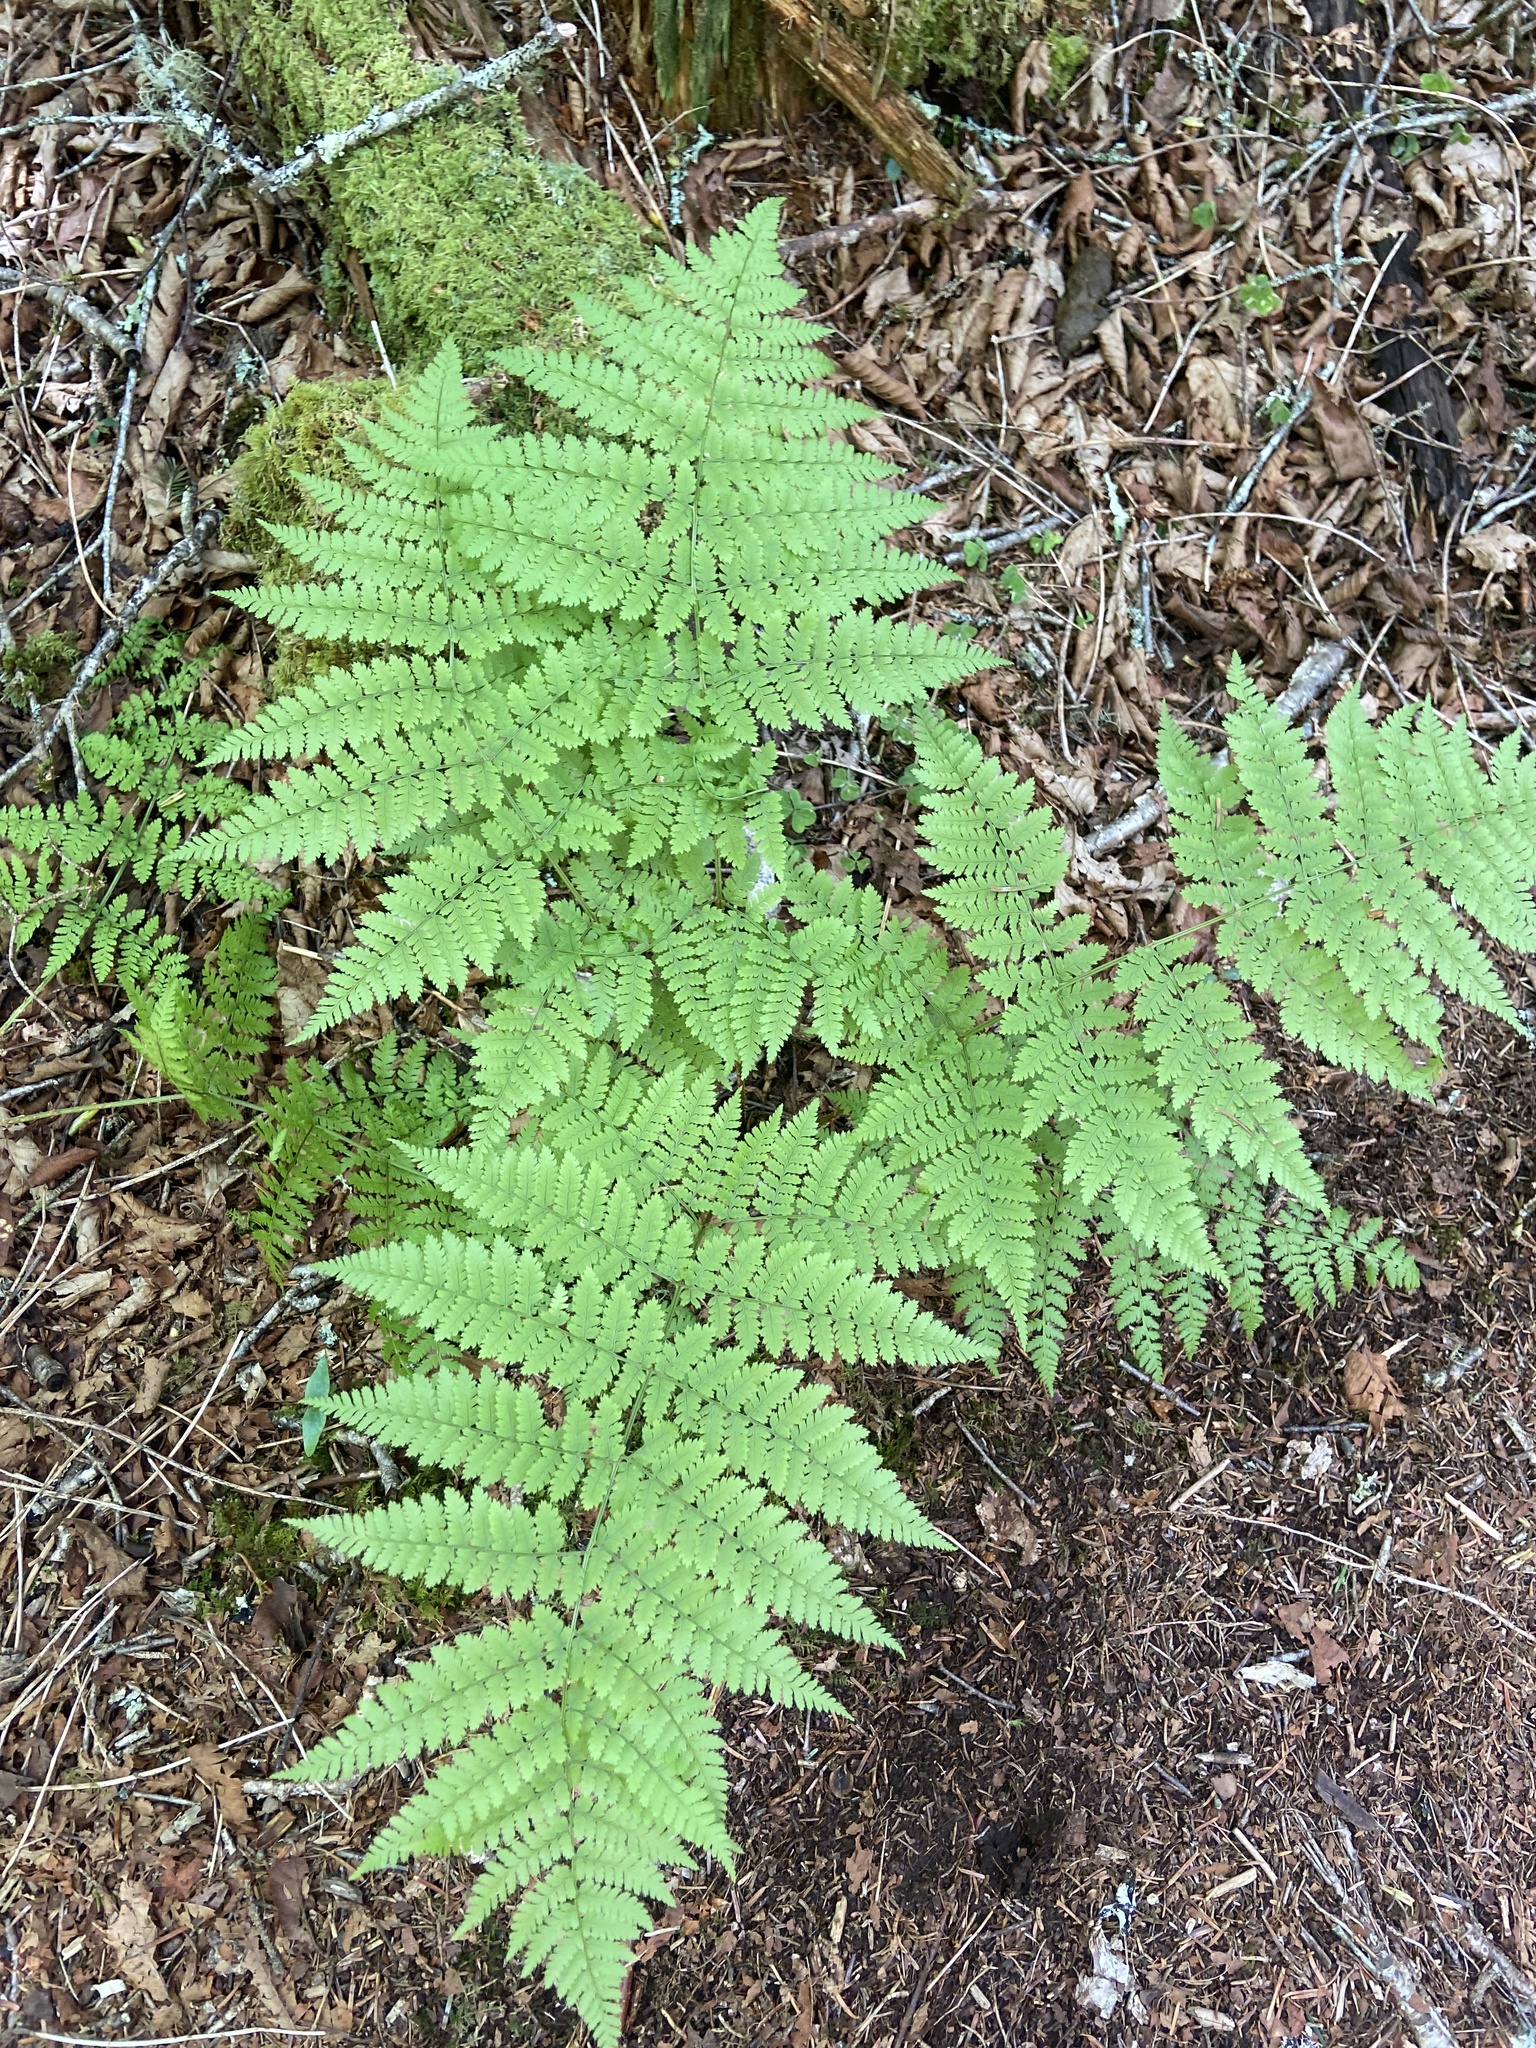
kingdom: Plantae
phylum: Tracheophyta
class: Polypodiopsida
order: Polypodiales
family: Dryopteridaceae
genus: Dryopteris
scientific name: Dryopteris intermedia
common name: Evergreen wood fern
